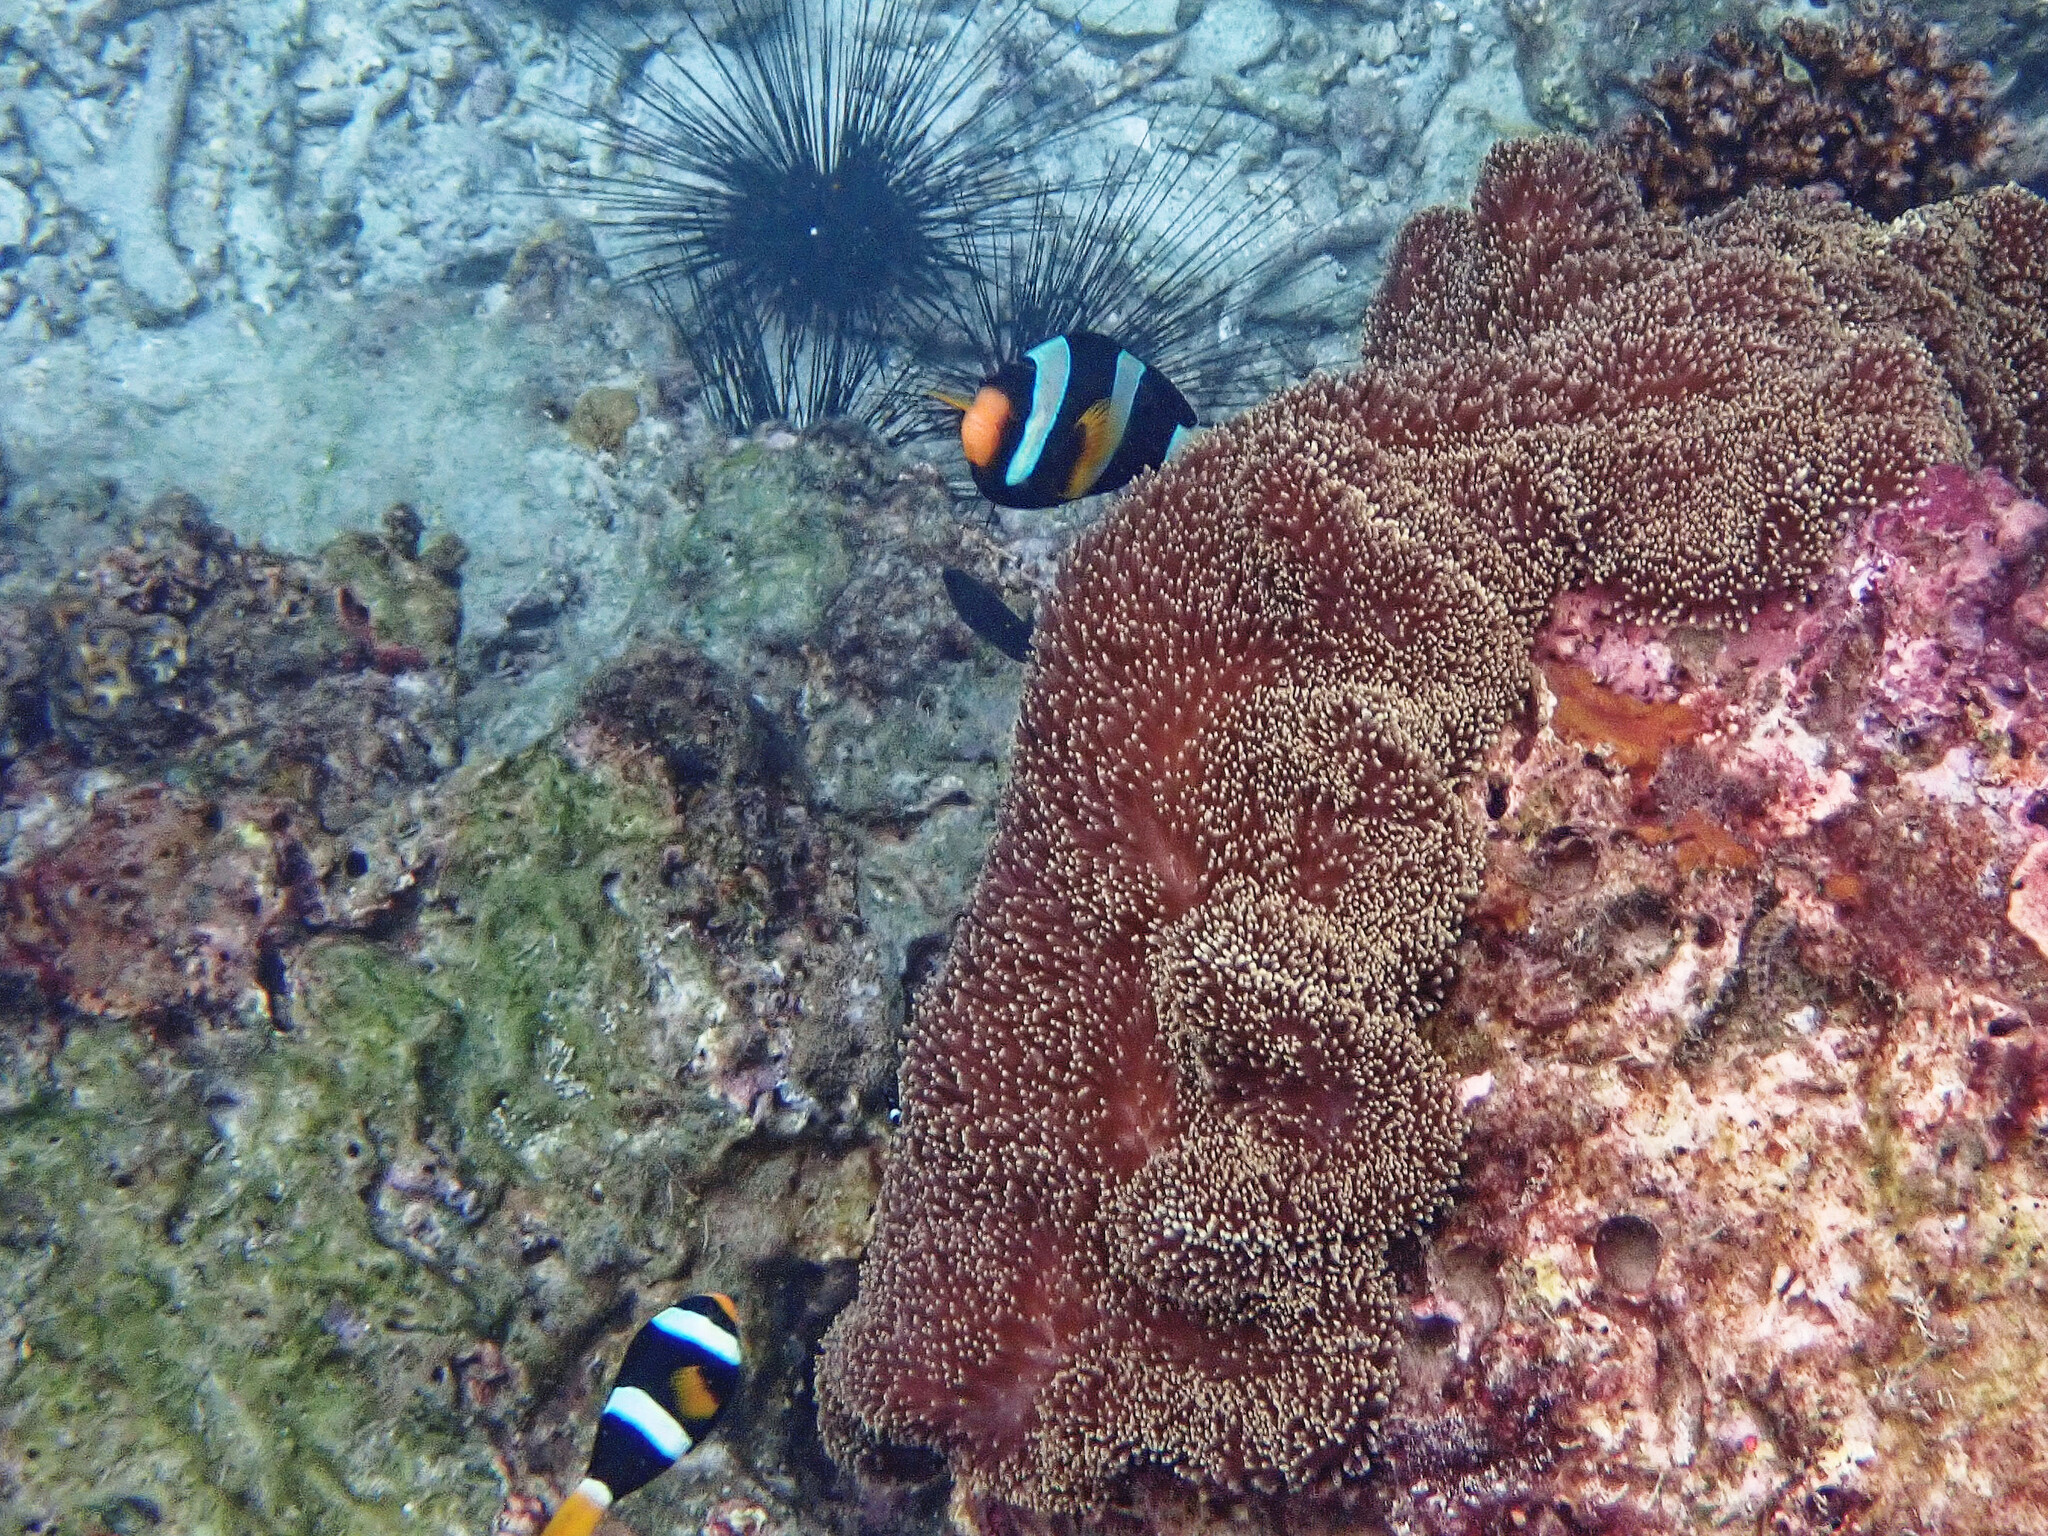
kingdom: Animalia
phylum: Chordata
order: Perciformes
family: Pomacentridae
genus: Amphiprion
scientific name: Amphiprion clarkii
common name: Clark's anemonefish
